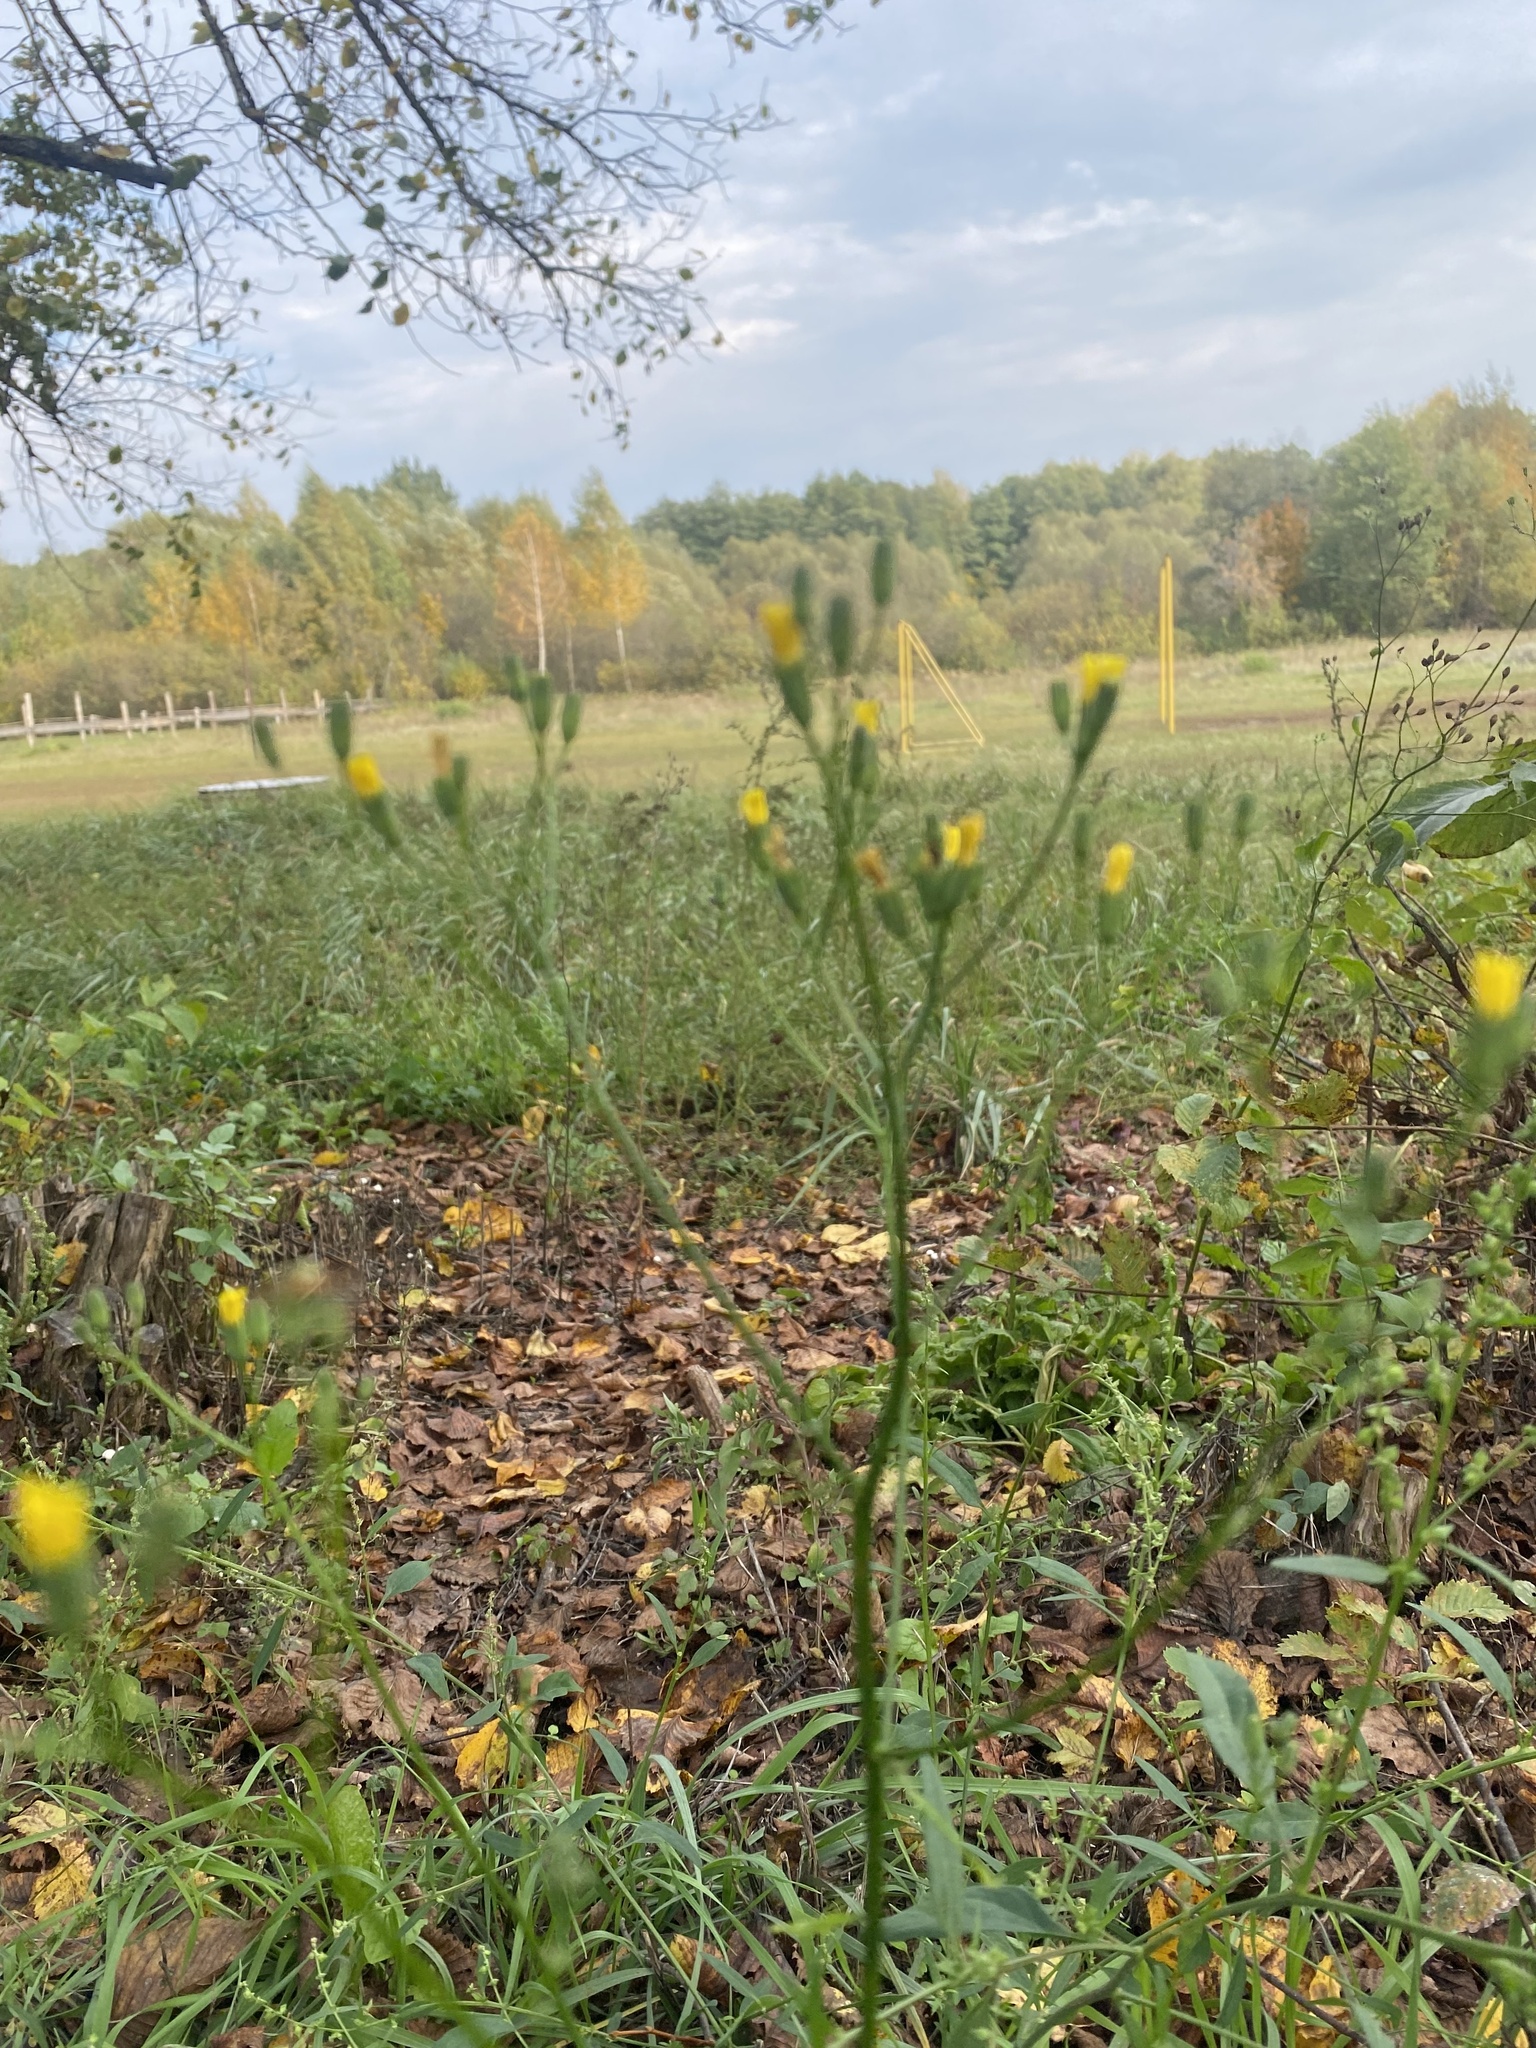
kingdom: Plantae
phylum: Tracheophyta
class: Magnoliopsida
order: Asterales
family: Asteraceae
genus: Lapsana
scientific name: Lapsana communis
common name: Nipplewort
